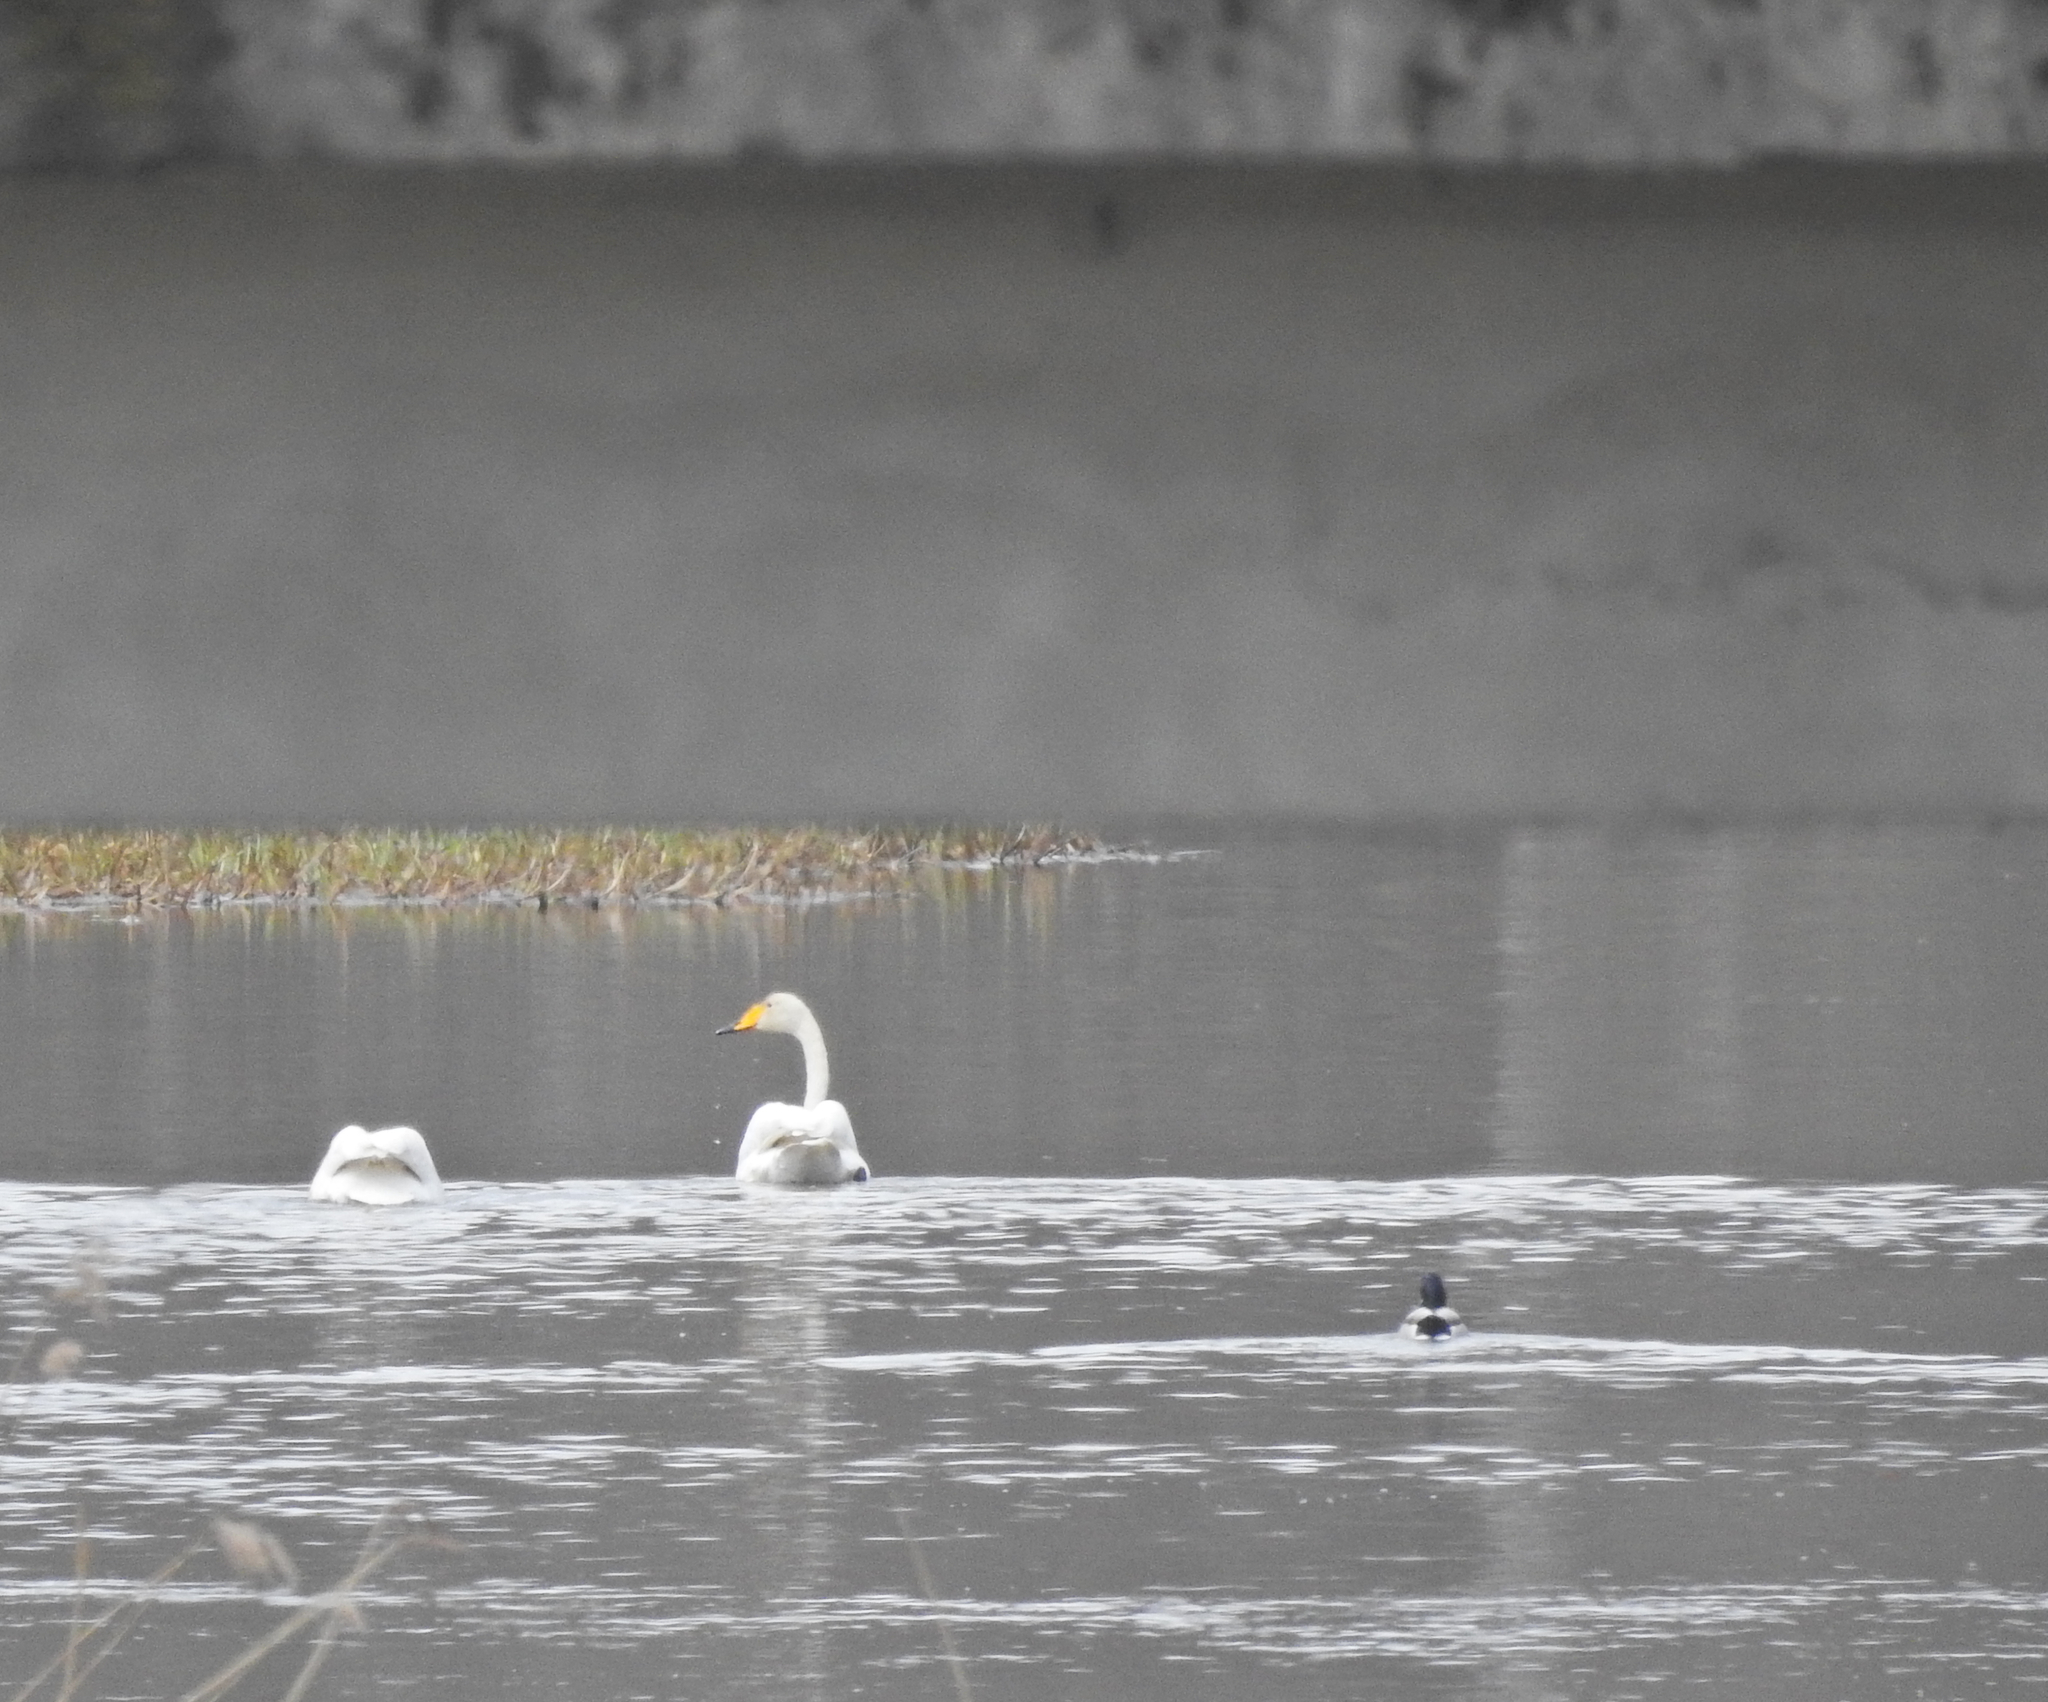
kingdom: Animalia
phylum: Chordata
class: Aves
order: Anseriformes
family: Anatidae
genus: Anas
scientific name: Anas platyrhynchos
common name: Mallard
